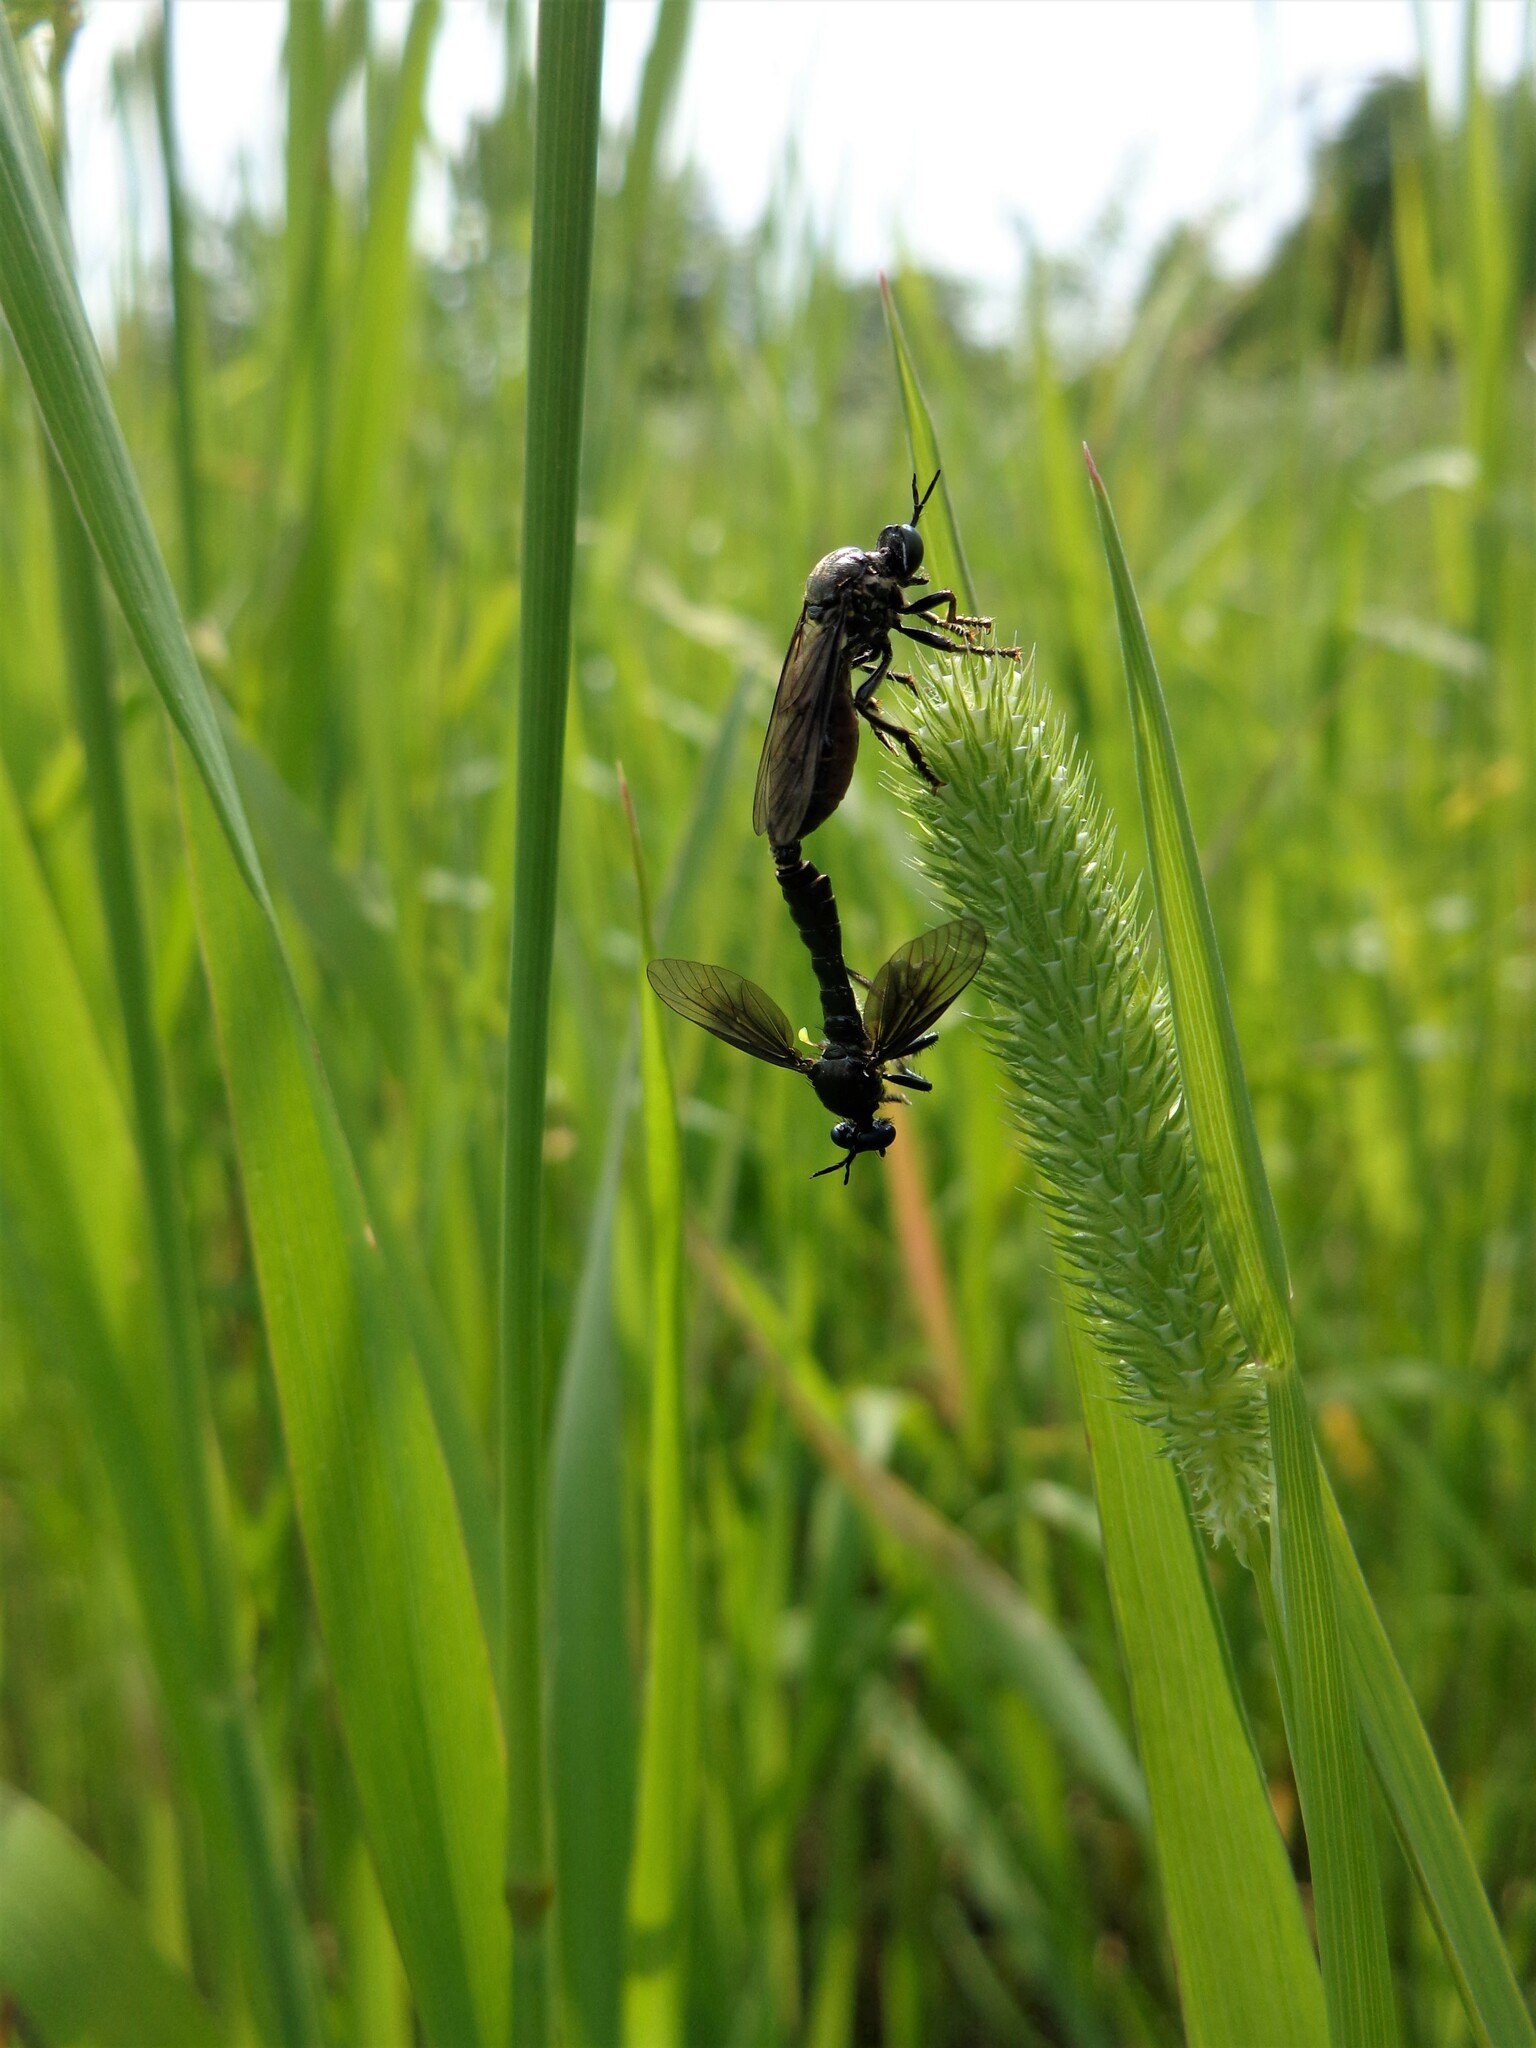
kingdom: Animalia
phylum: Arthropoda
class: Insecta
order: Diptera
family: Asilidae
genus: Dioctria
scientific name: Dioctria atricapilla
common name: Violet black-legged
